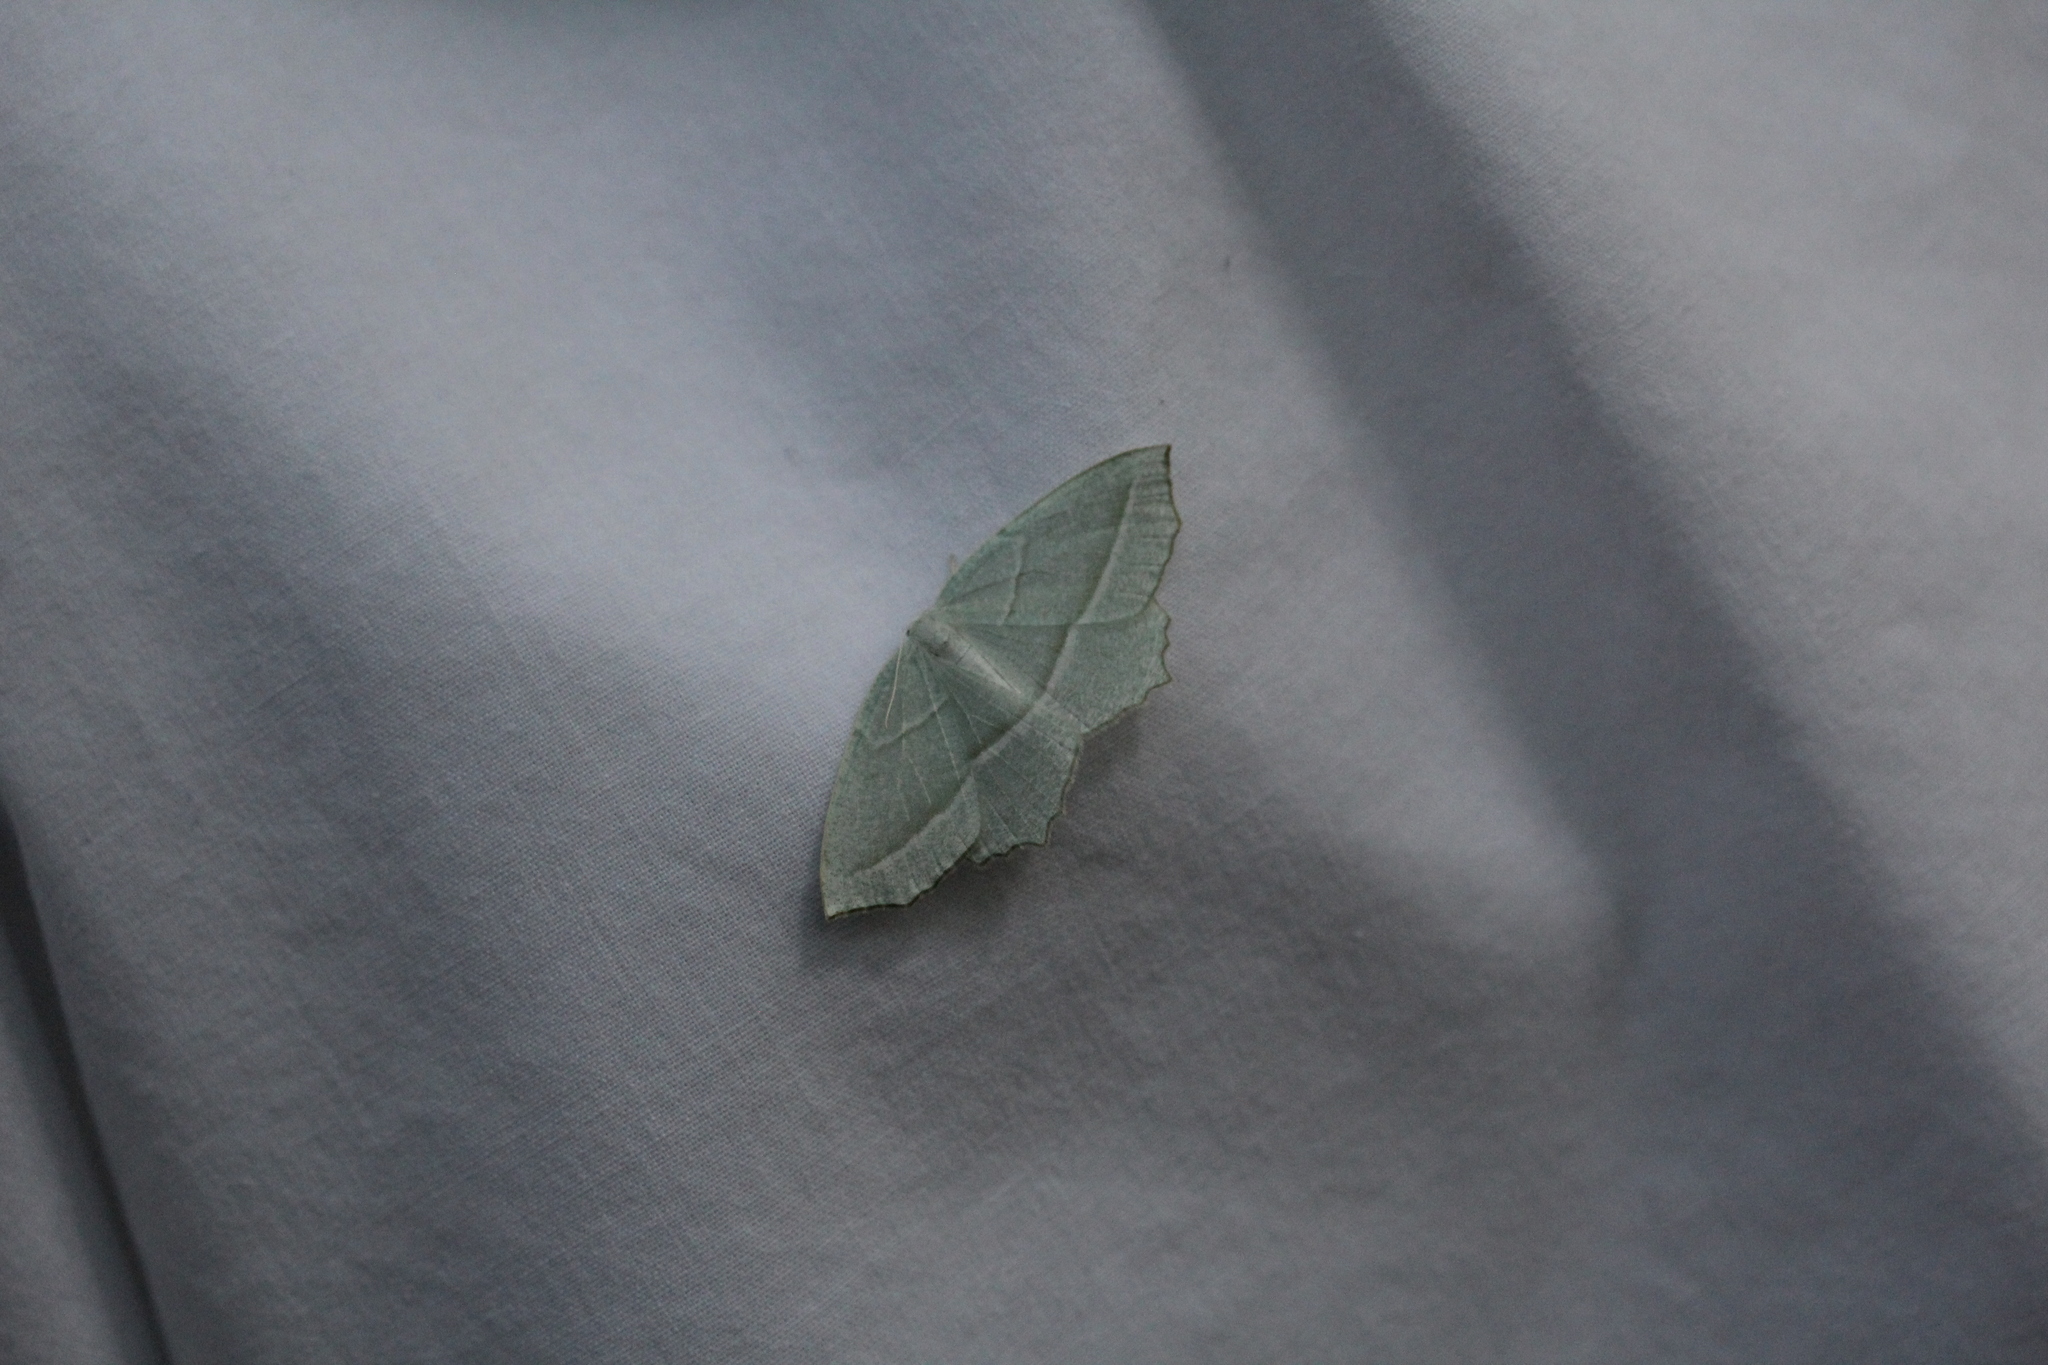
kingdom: Animalia
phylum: Arthropoda
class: Insecta
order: Lepidoptera
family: Geometridae
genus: Campaea
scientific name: Campaea perlata
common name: Fringed looper
